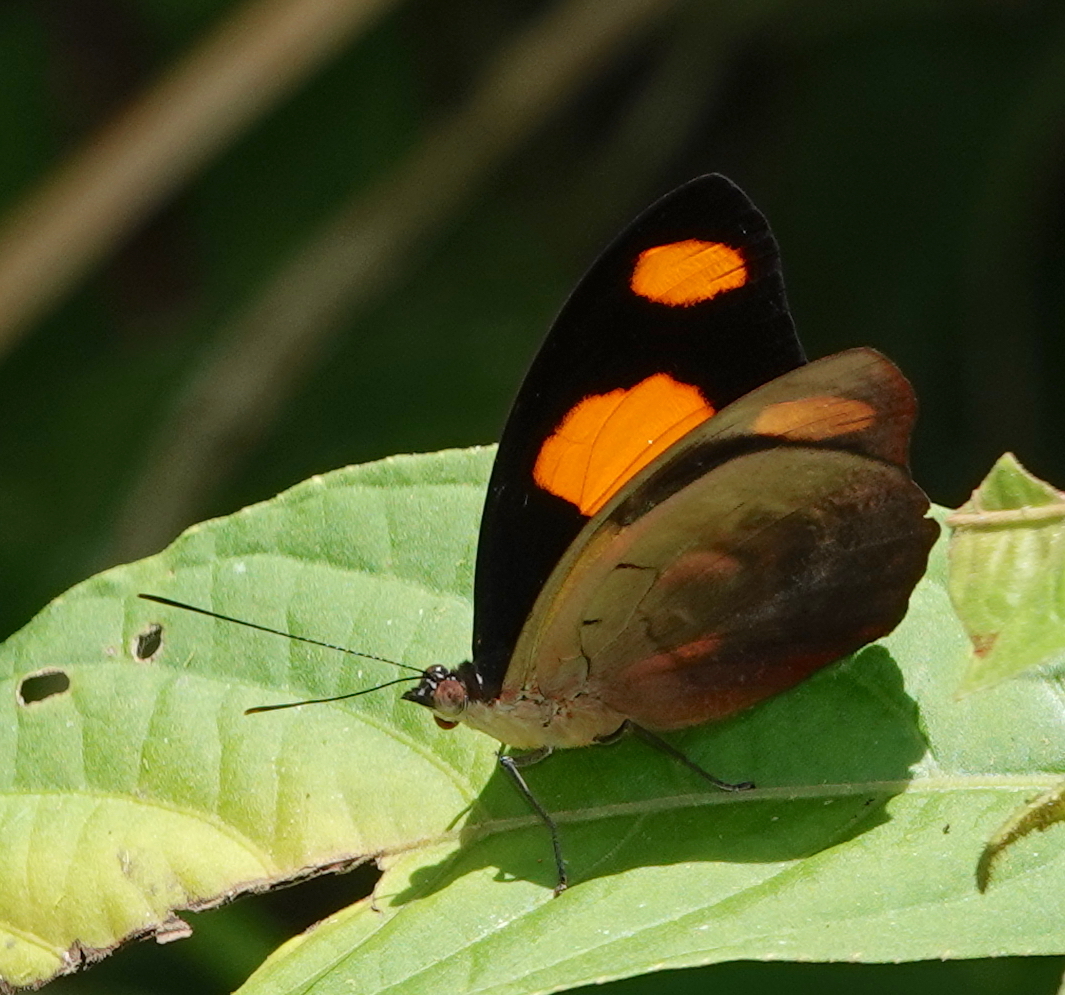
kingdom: Animalia
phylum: Arthropoda
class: Insecta
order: Lepidoptera
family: Nymphalidae
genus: Catonephele
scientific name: Catonephele numilia
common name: Blue-frosted banner
